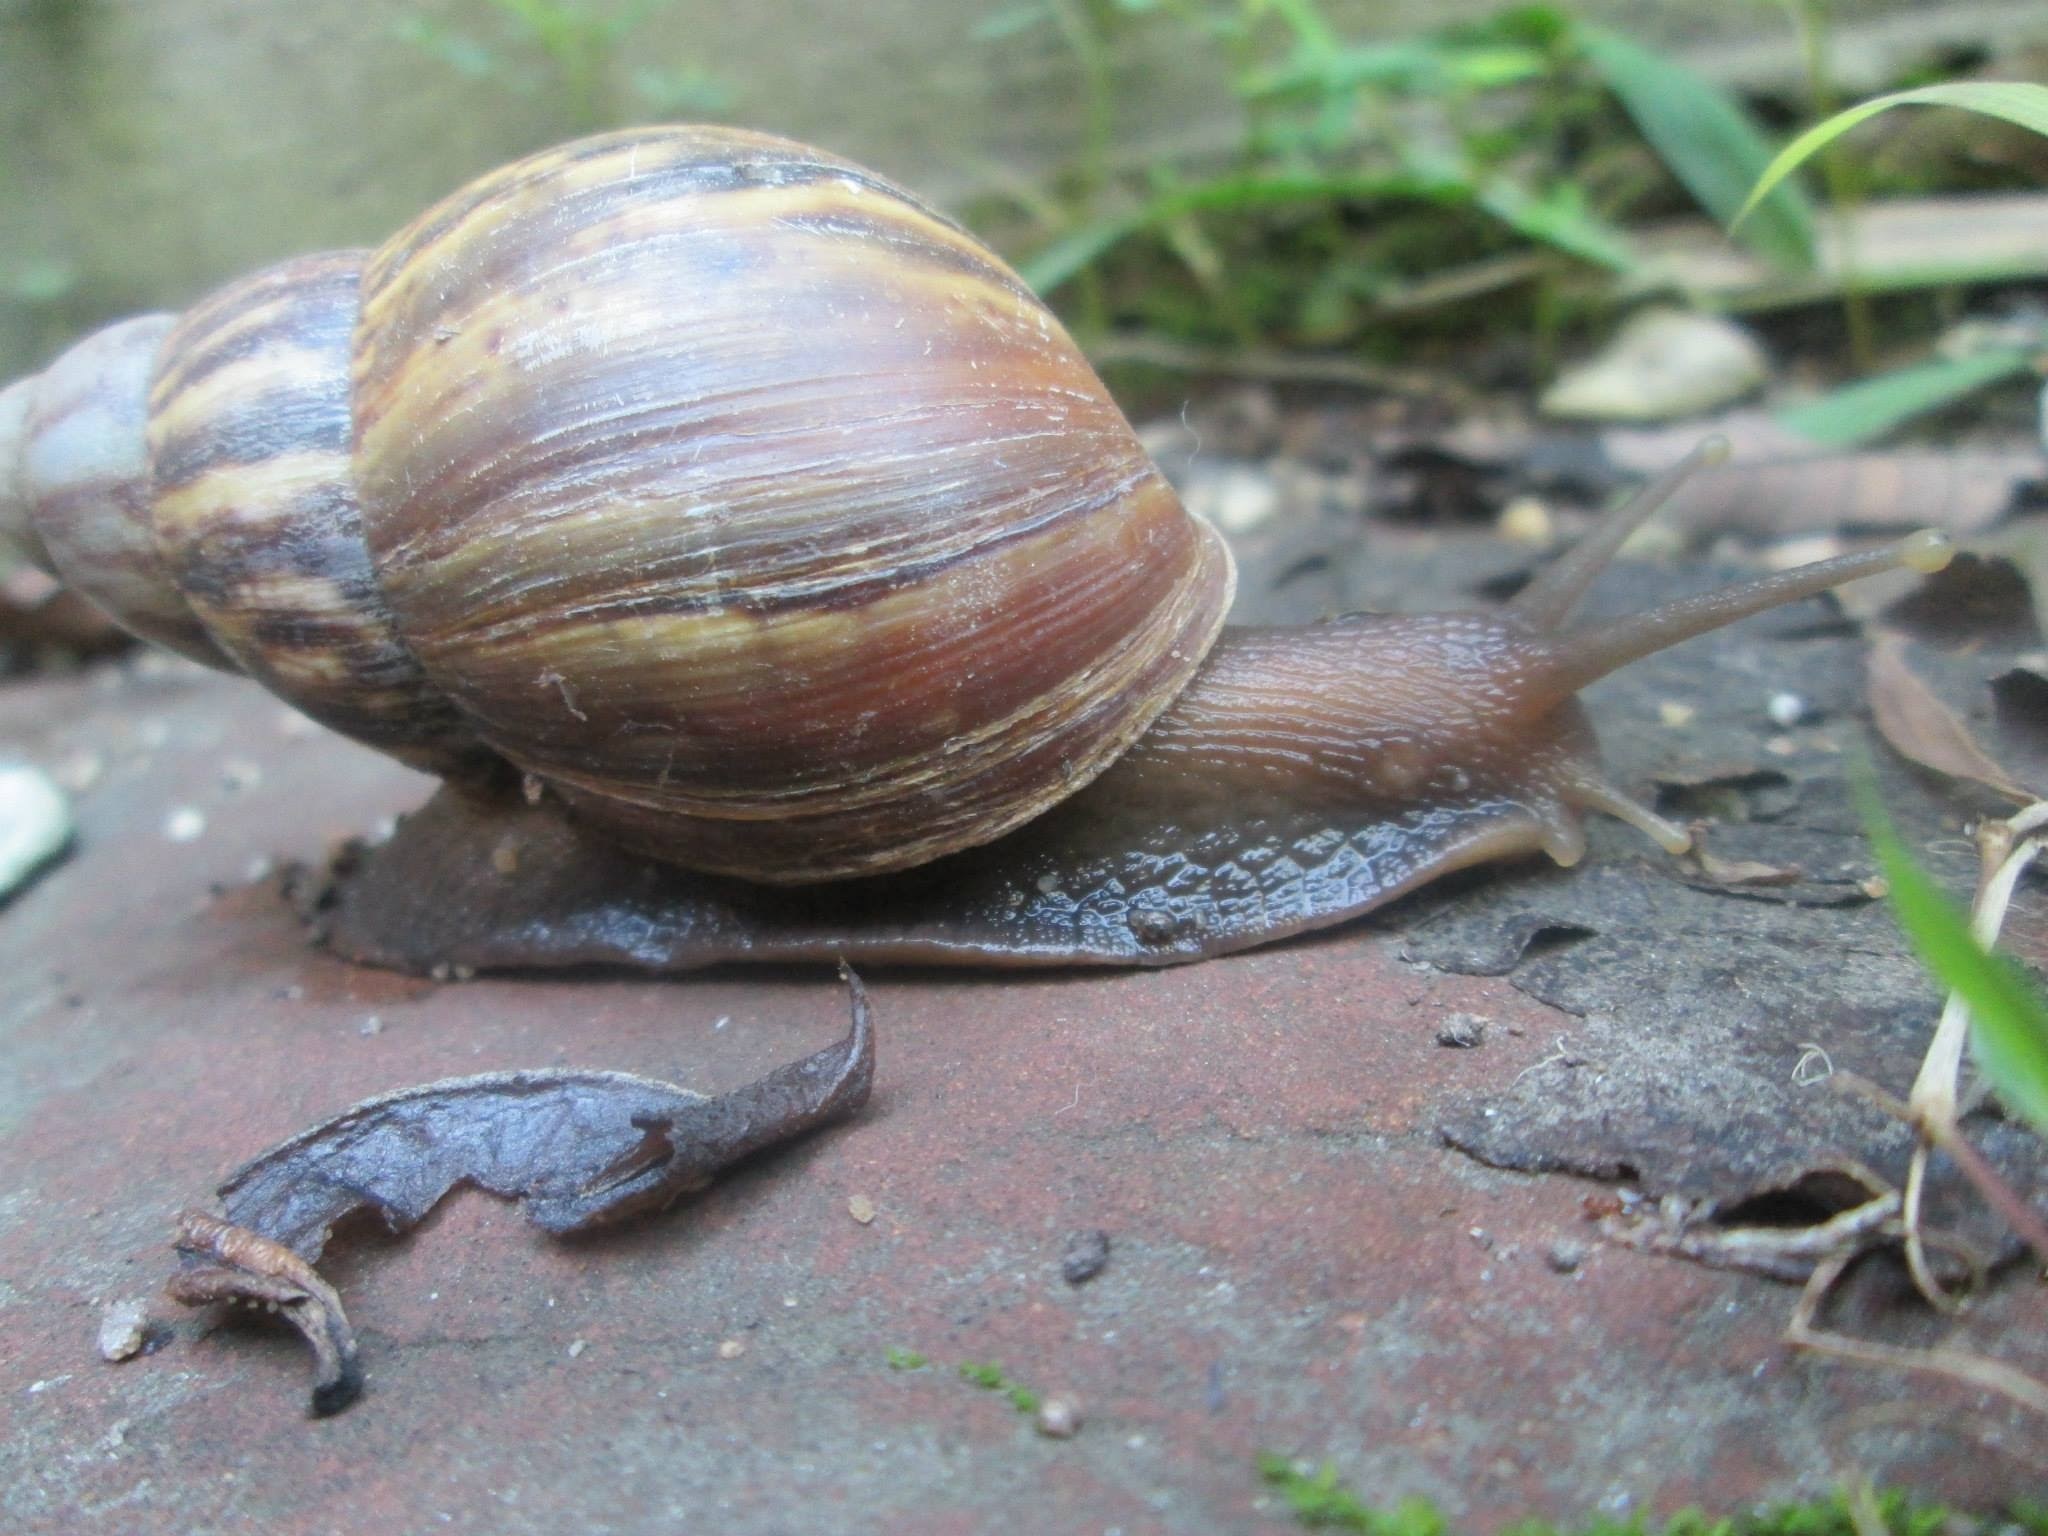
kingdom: Animalia
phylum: Mollusca
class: Gastropoda
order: Stylommatophora
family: Achatinidae
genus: Lissachatina
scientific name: Lissachatina fulica
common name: Giant african snail
